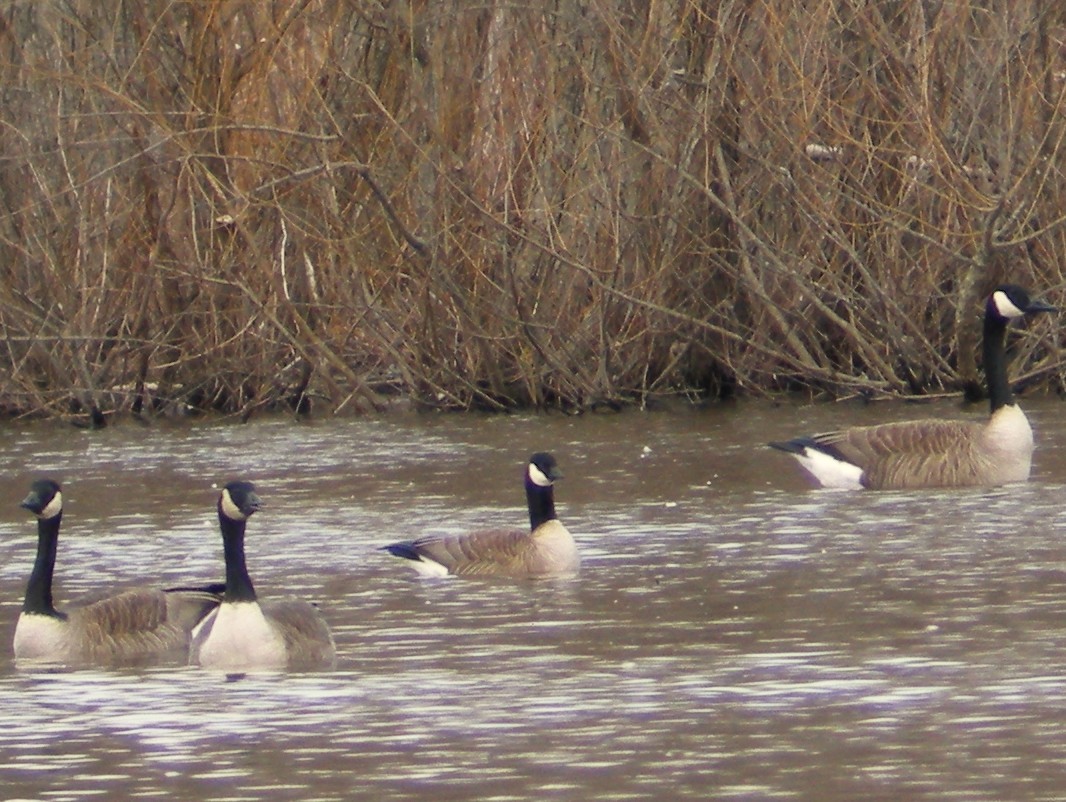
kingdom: Animalia
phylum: Chordata
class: Aves
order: Anseriformes
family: Anatidae
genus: Branta
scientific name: Branta hutchinsii
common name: Cackling goose
